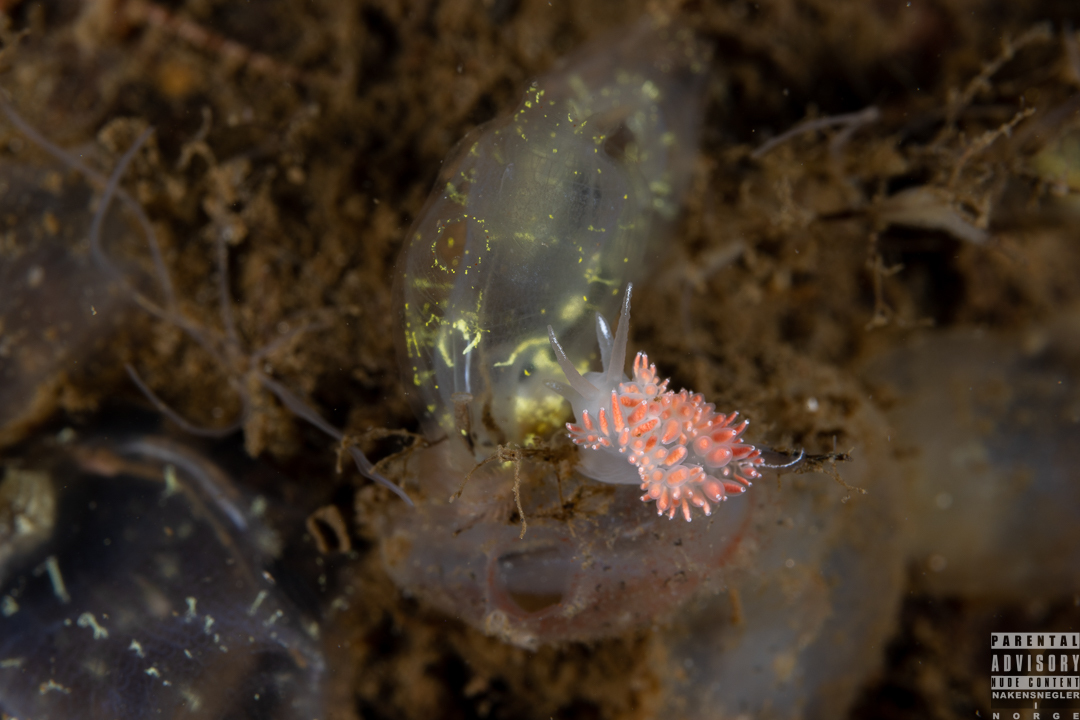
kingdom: Animalia
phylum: Mollusca
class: Gastropoda
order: Nudibranchia
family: Coryphellidae
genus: Coryphella
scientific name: Coryphella verrucosa
